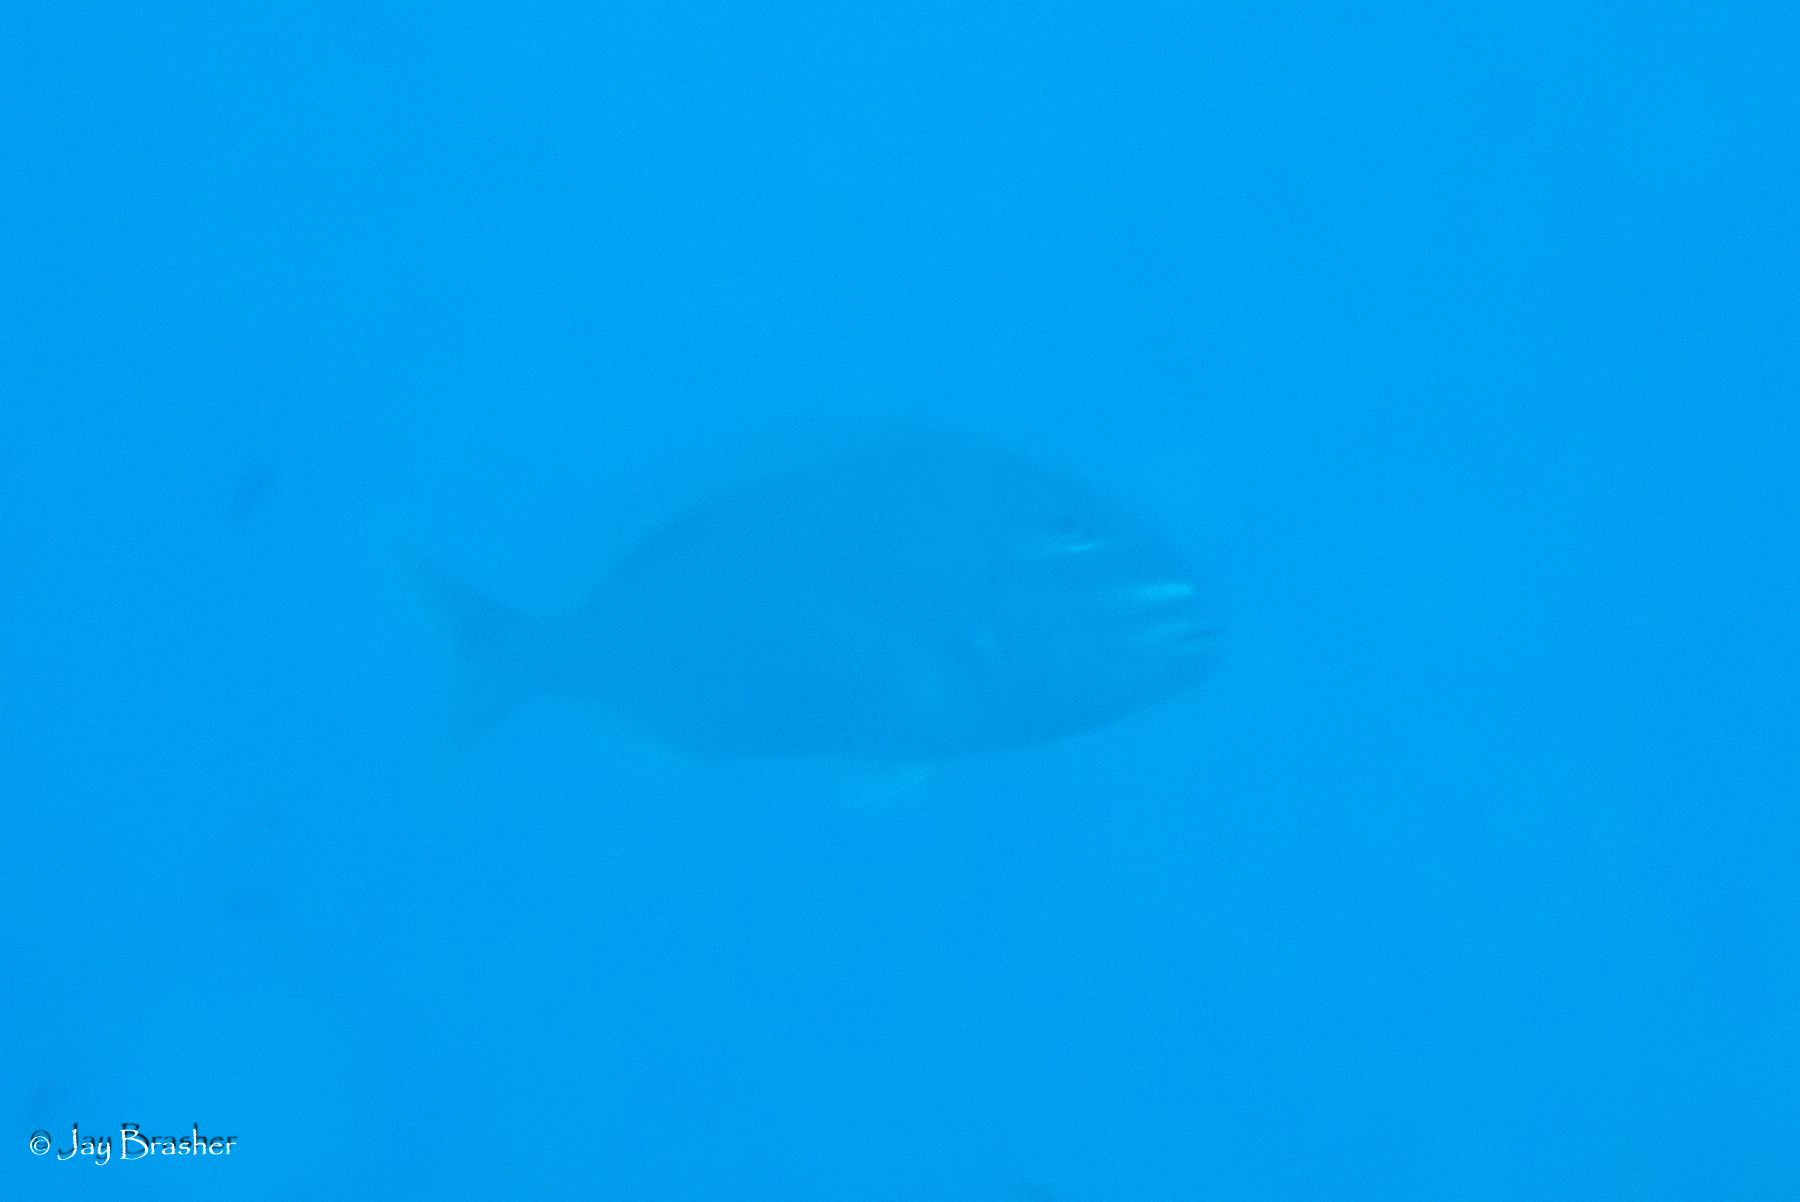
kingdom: Animalia
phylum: Chordata
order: Perciformes
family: Sparidae
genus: Calamus
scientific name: Calamus bajonado
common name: Jolthead porgy
